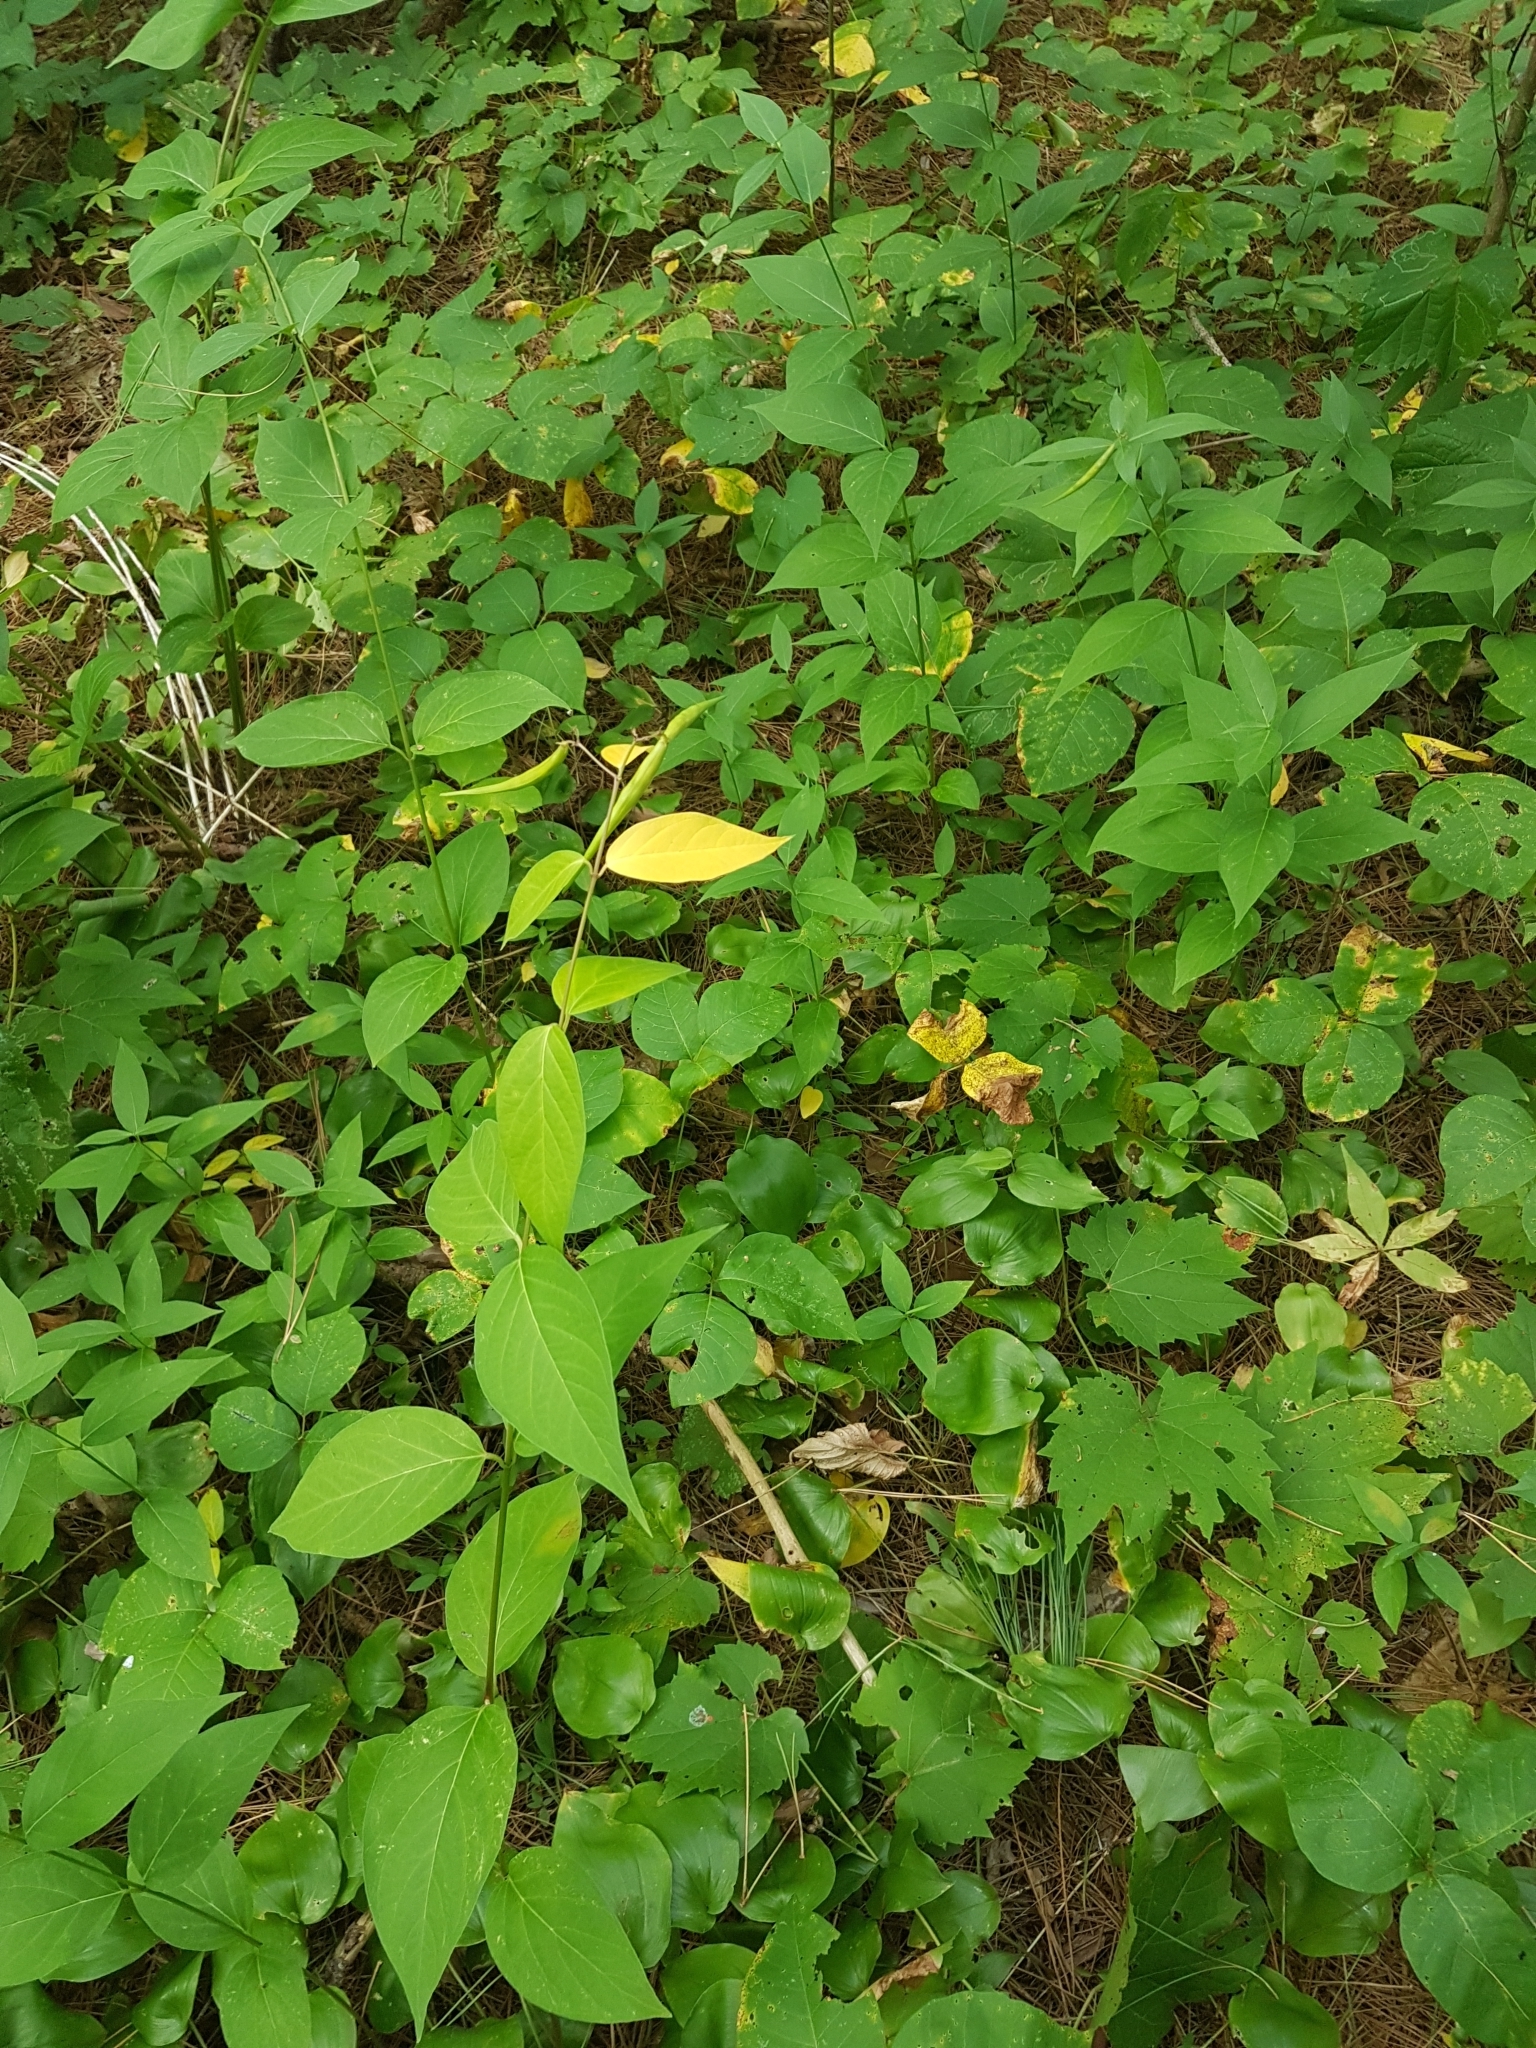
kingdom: Plantae
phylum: Tracheophyta
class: Magnoliopsida
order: Gentianales
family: Apocynaceae
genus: Vincetoxicum
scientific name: Vincetoxicum rossicum
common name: Dog-strangling vine
